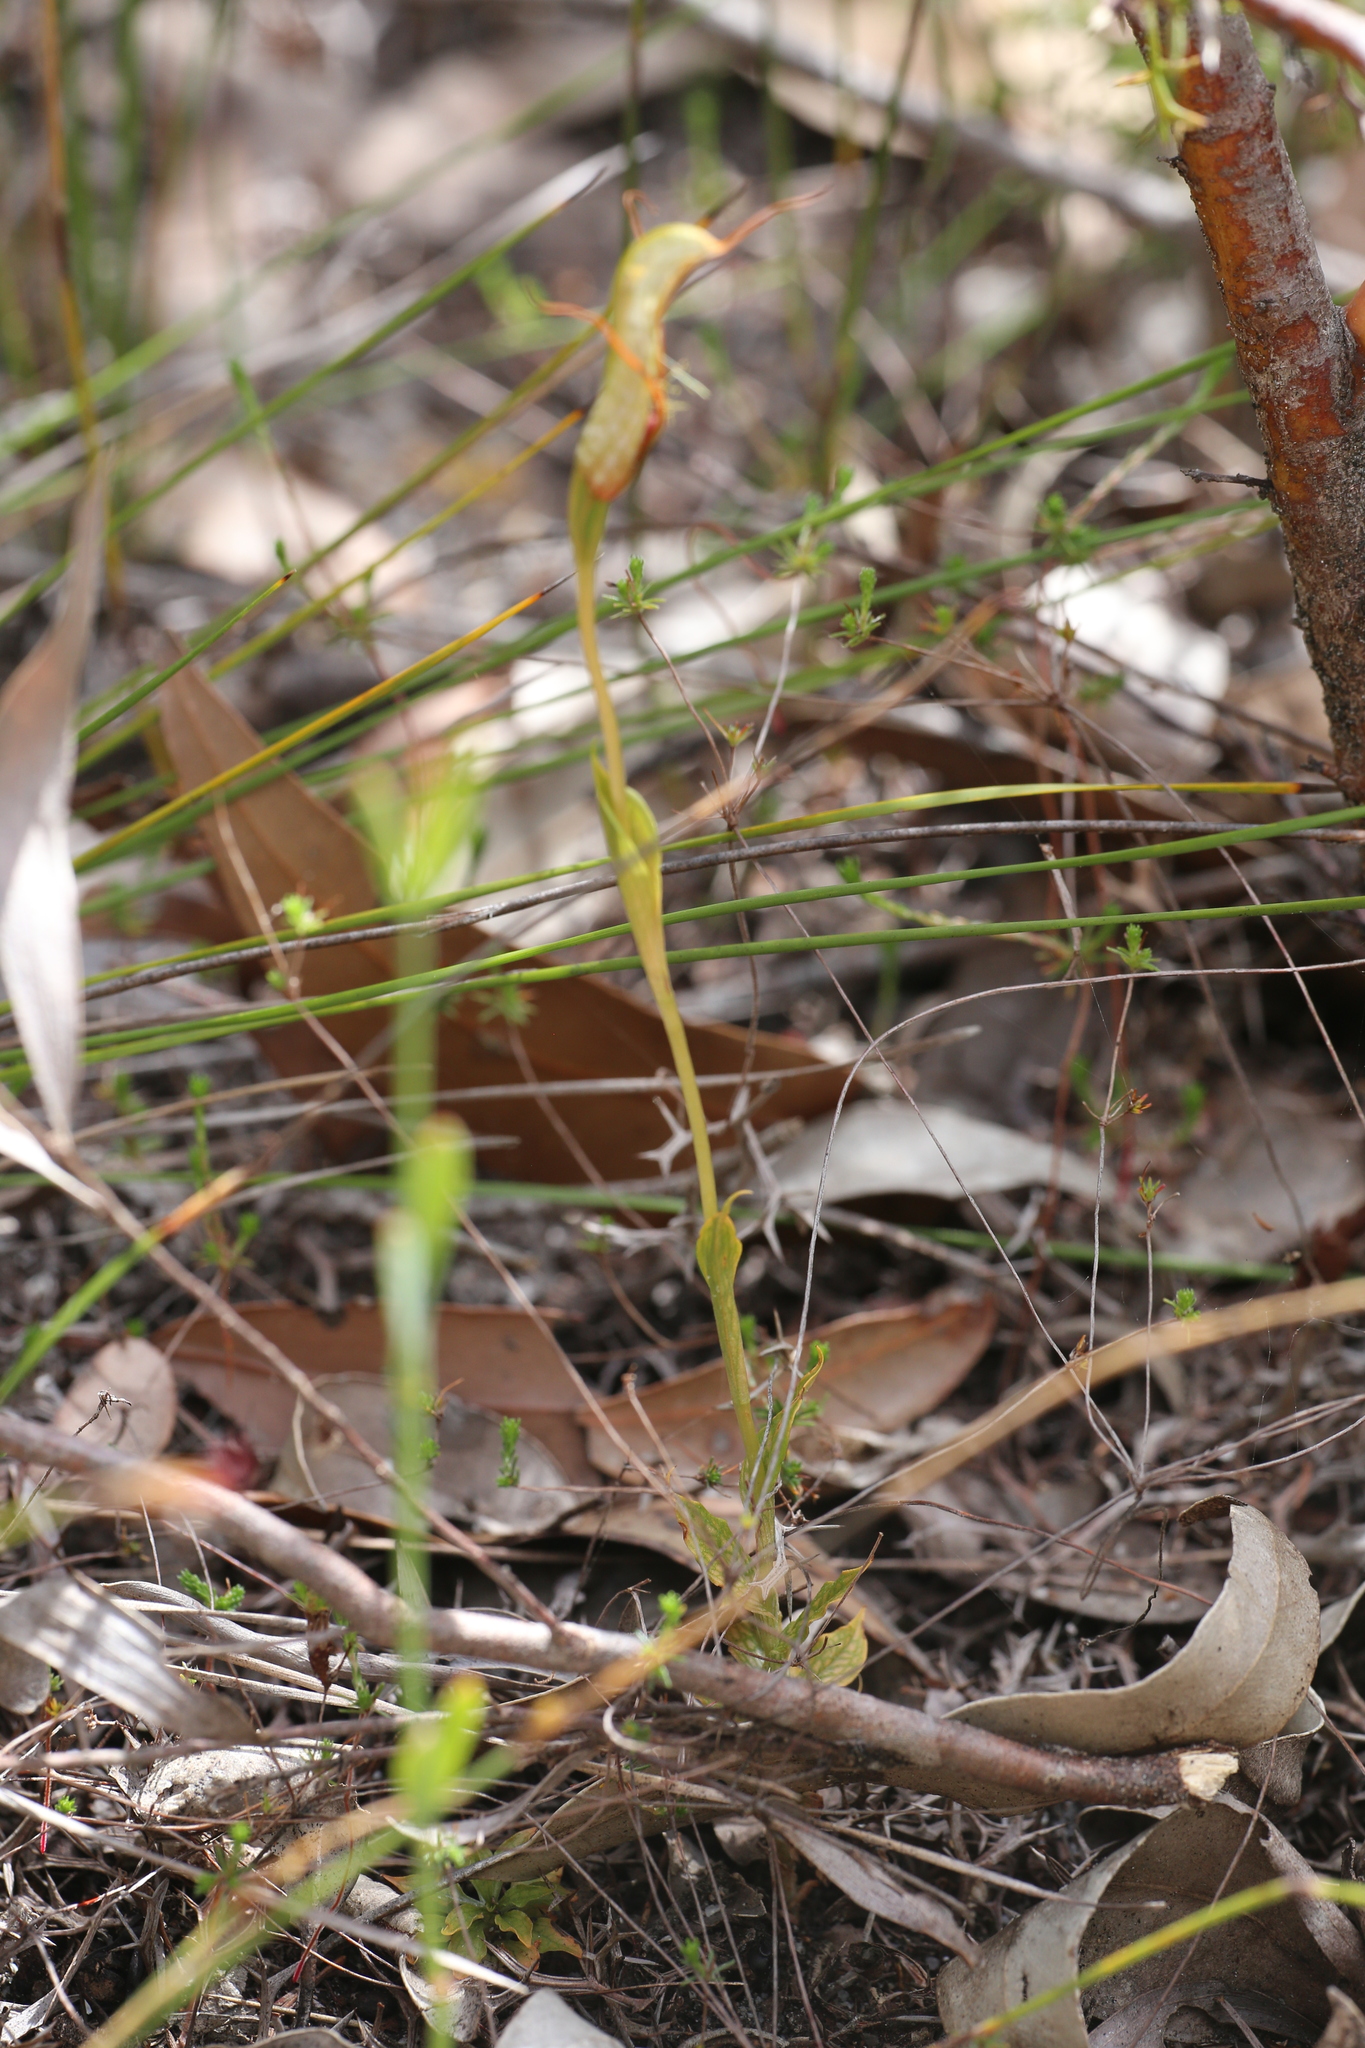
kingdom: Plantae
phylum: Tracheophyta
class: Liliopsida
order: Asparagales
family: Orchidaceae
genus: Pterostylis
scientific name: Pterostylis barbata
